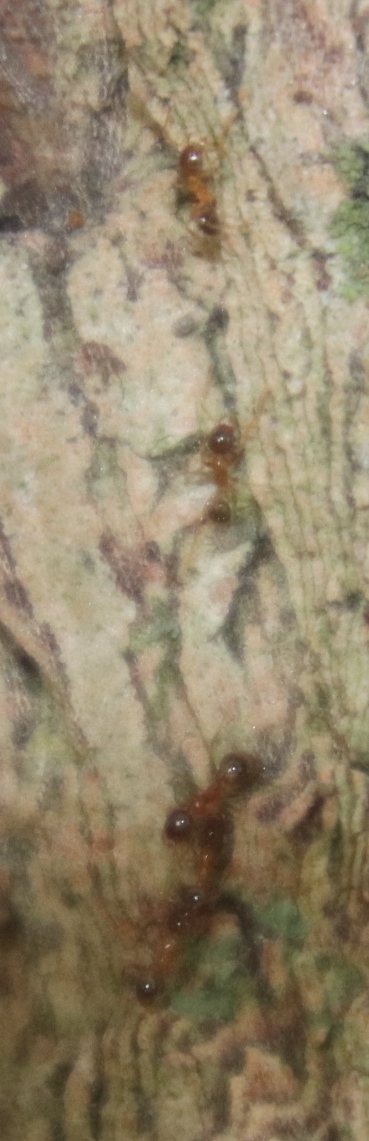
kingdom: Animalia
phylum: Arthropoda
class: Insecta
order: Hymenoptera
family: Formicidae
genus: Pheidole
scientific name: Pheidole megacephala
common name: Bigheaded ant
